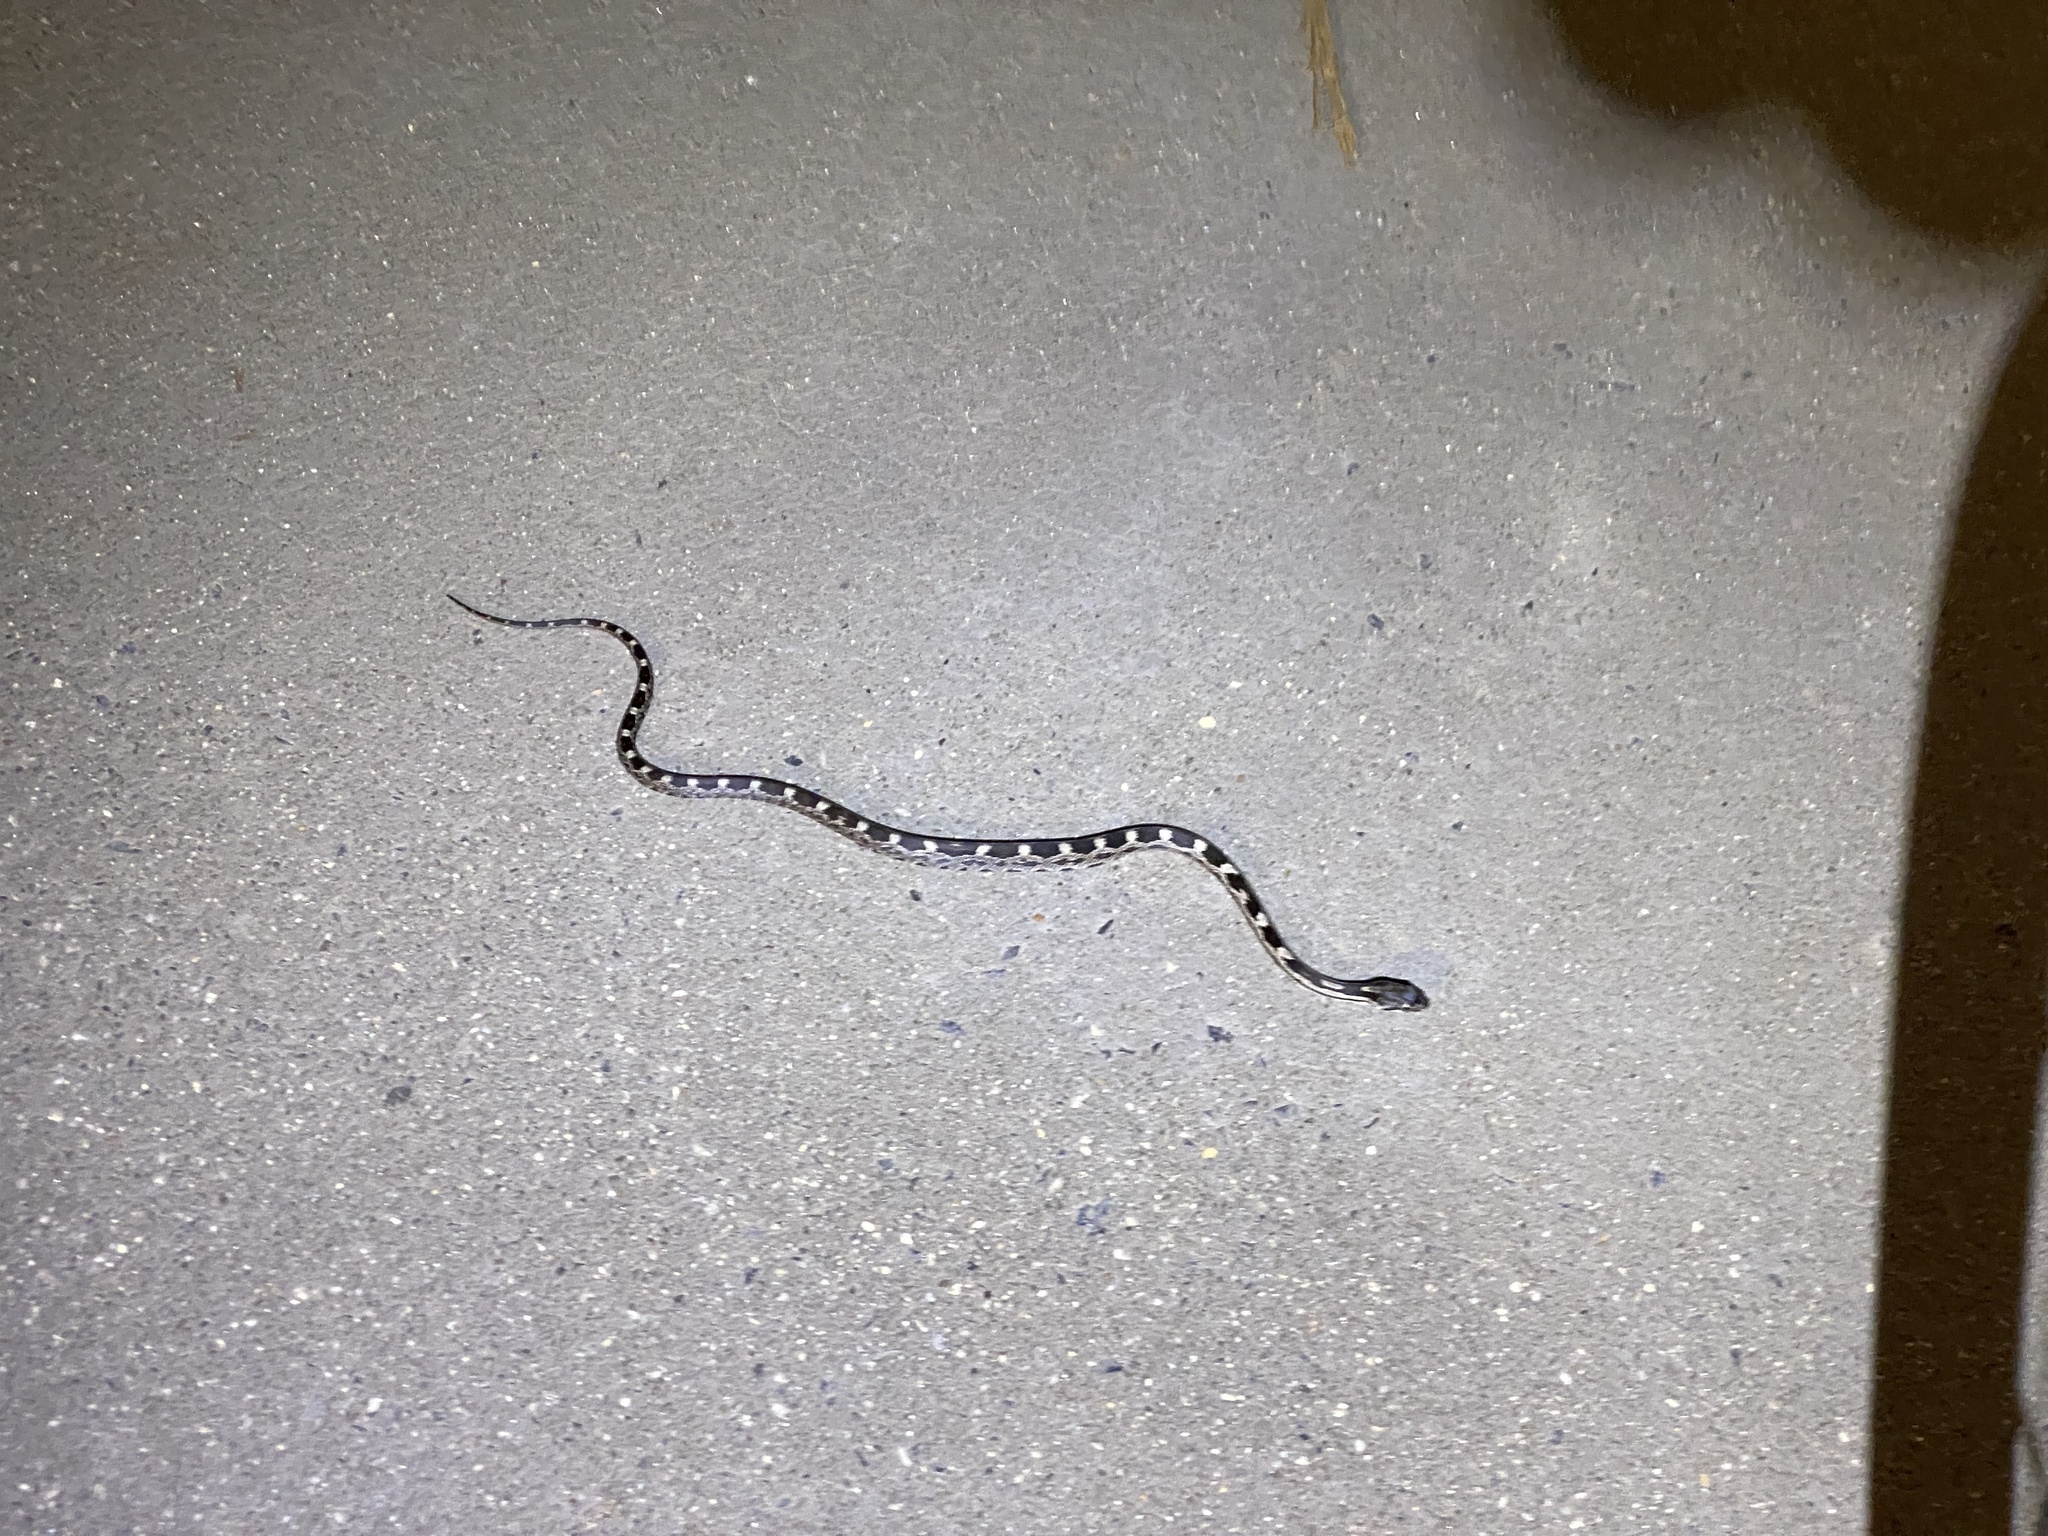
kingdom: Animalia
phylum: Chordata
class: Squamata
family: Colubridae
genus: Pantherophis
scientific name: Pantherophis
